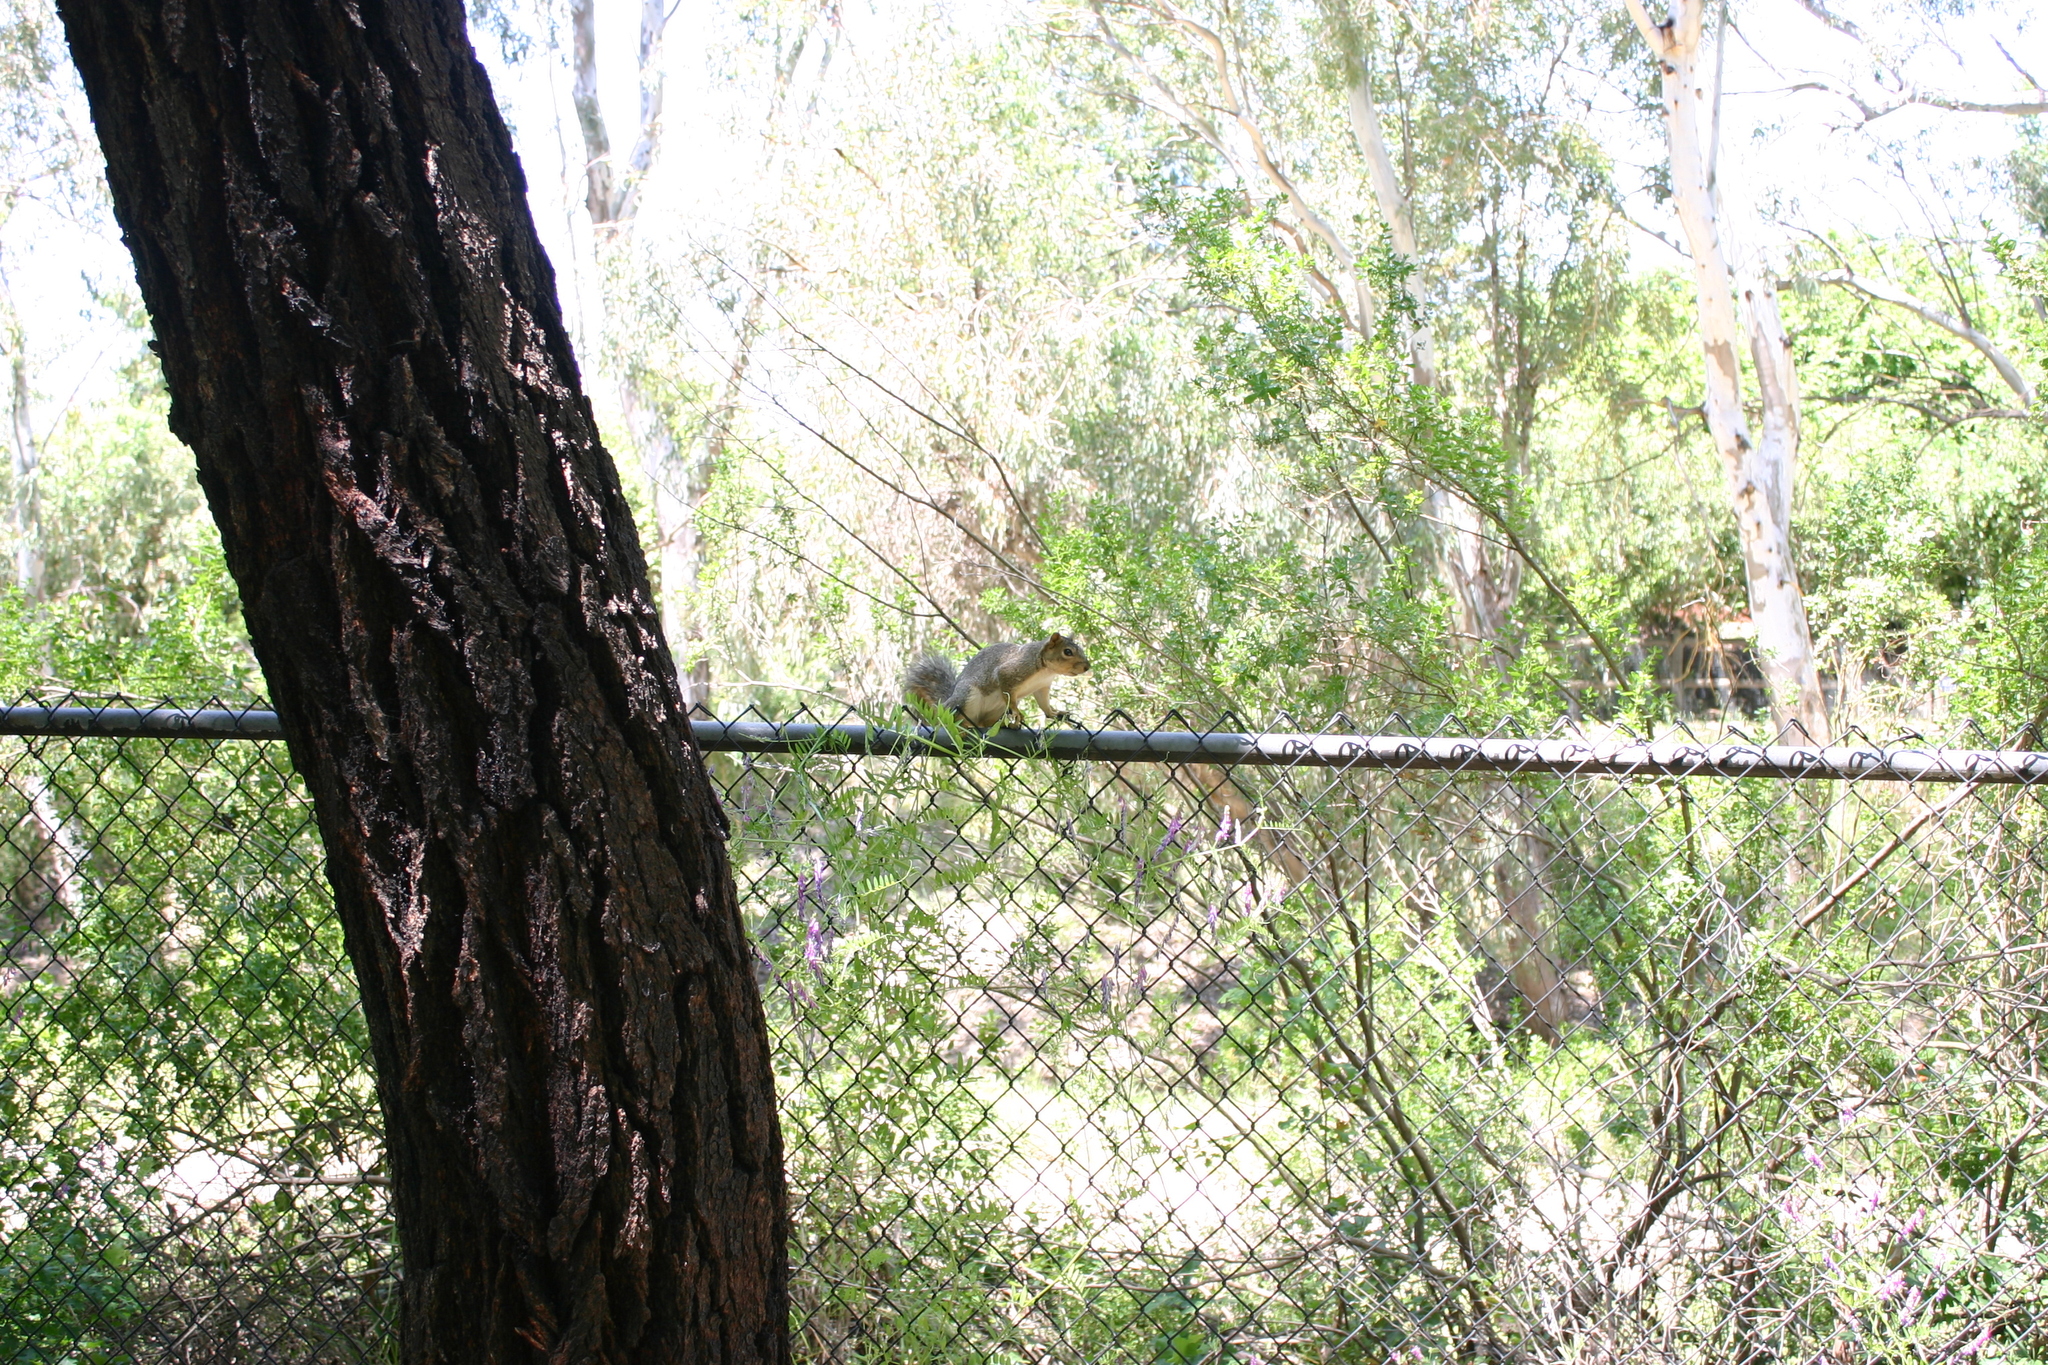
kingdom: Animalia
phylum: Chordata
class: Mammalia
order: Rodentia
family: Sciuridae
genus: Sciurus
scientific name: Sciurus niger
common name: Fox squirrel
